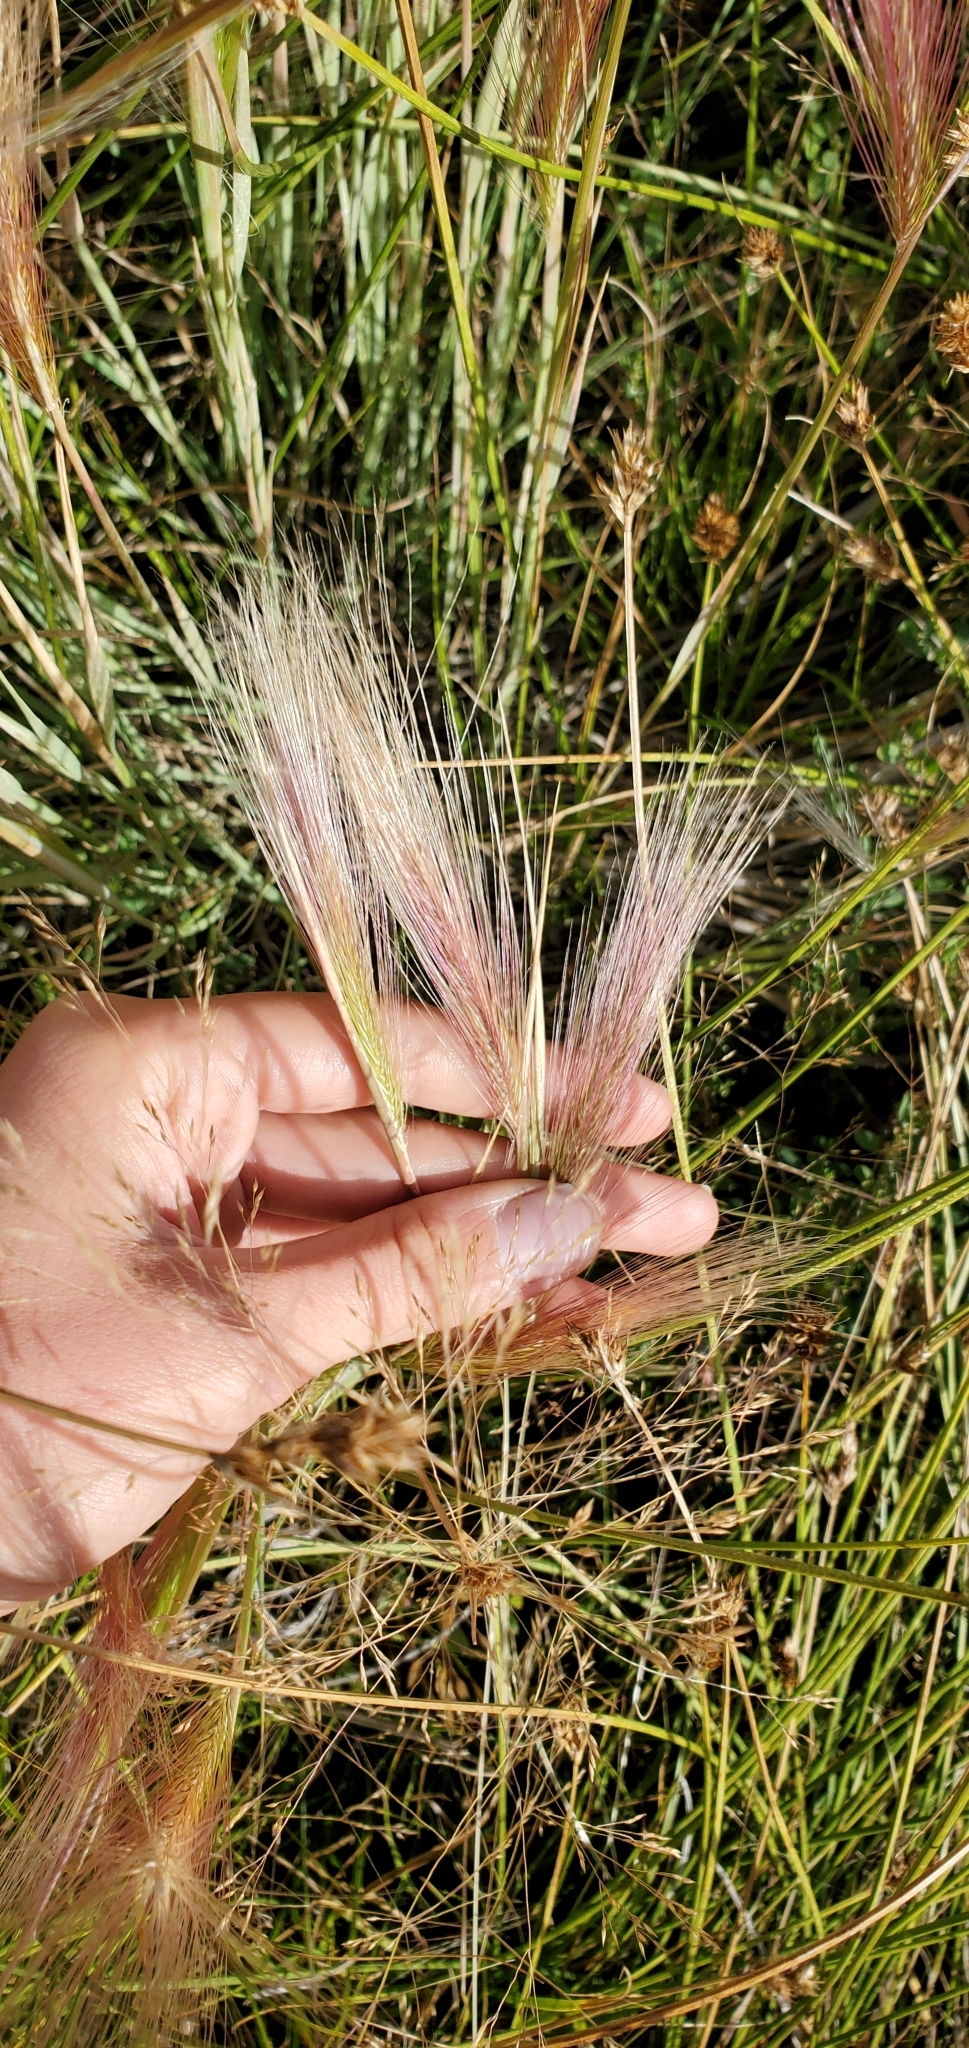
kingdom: Plantae
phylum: Tracheophyta
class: Liliopsida
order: Poales
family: Poaceae
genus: Hordeum
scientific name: Hordeum jubatum
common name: Foxtail barley
